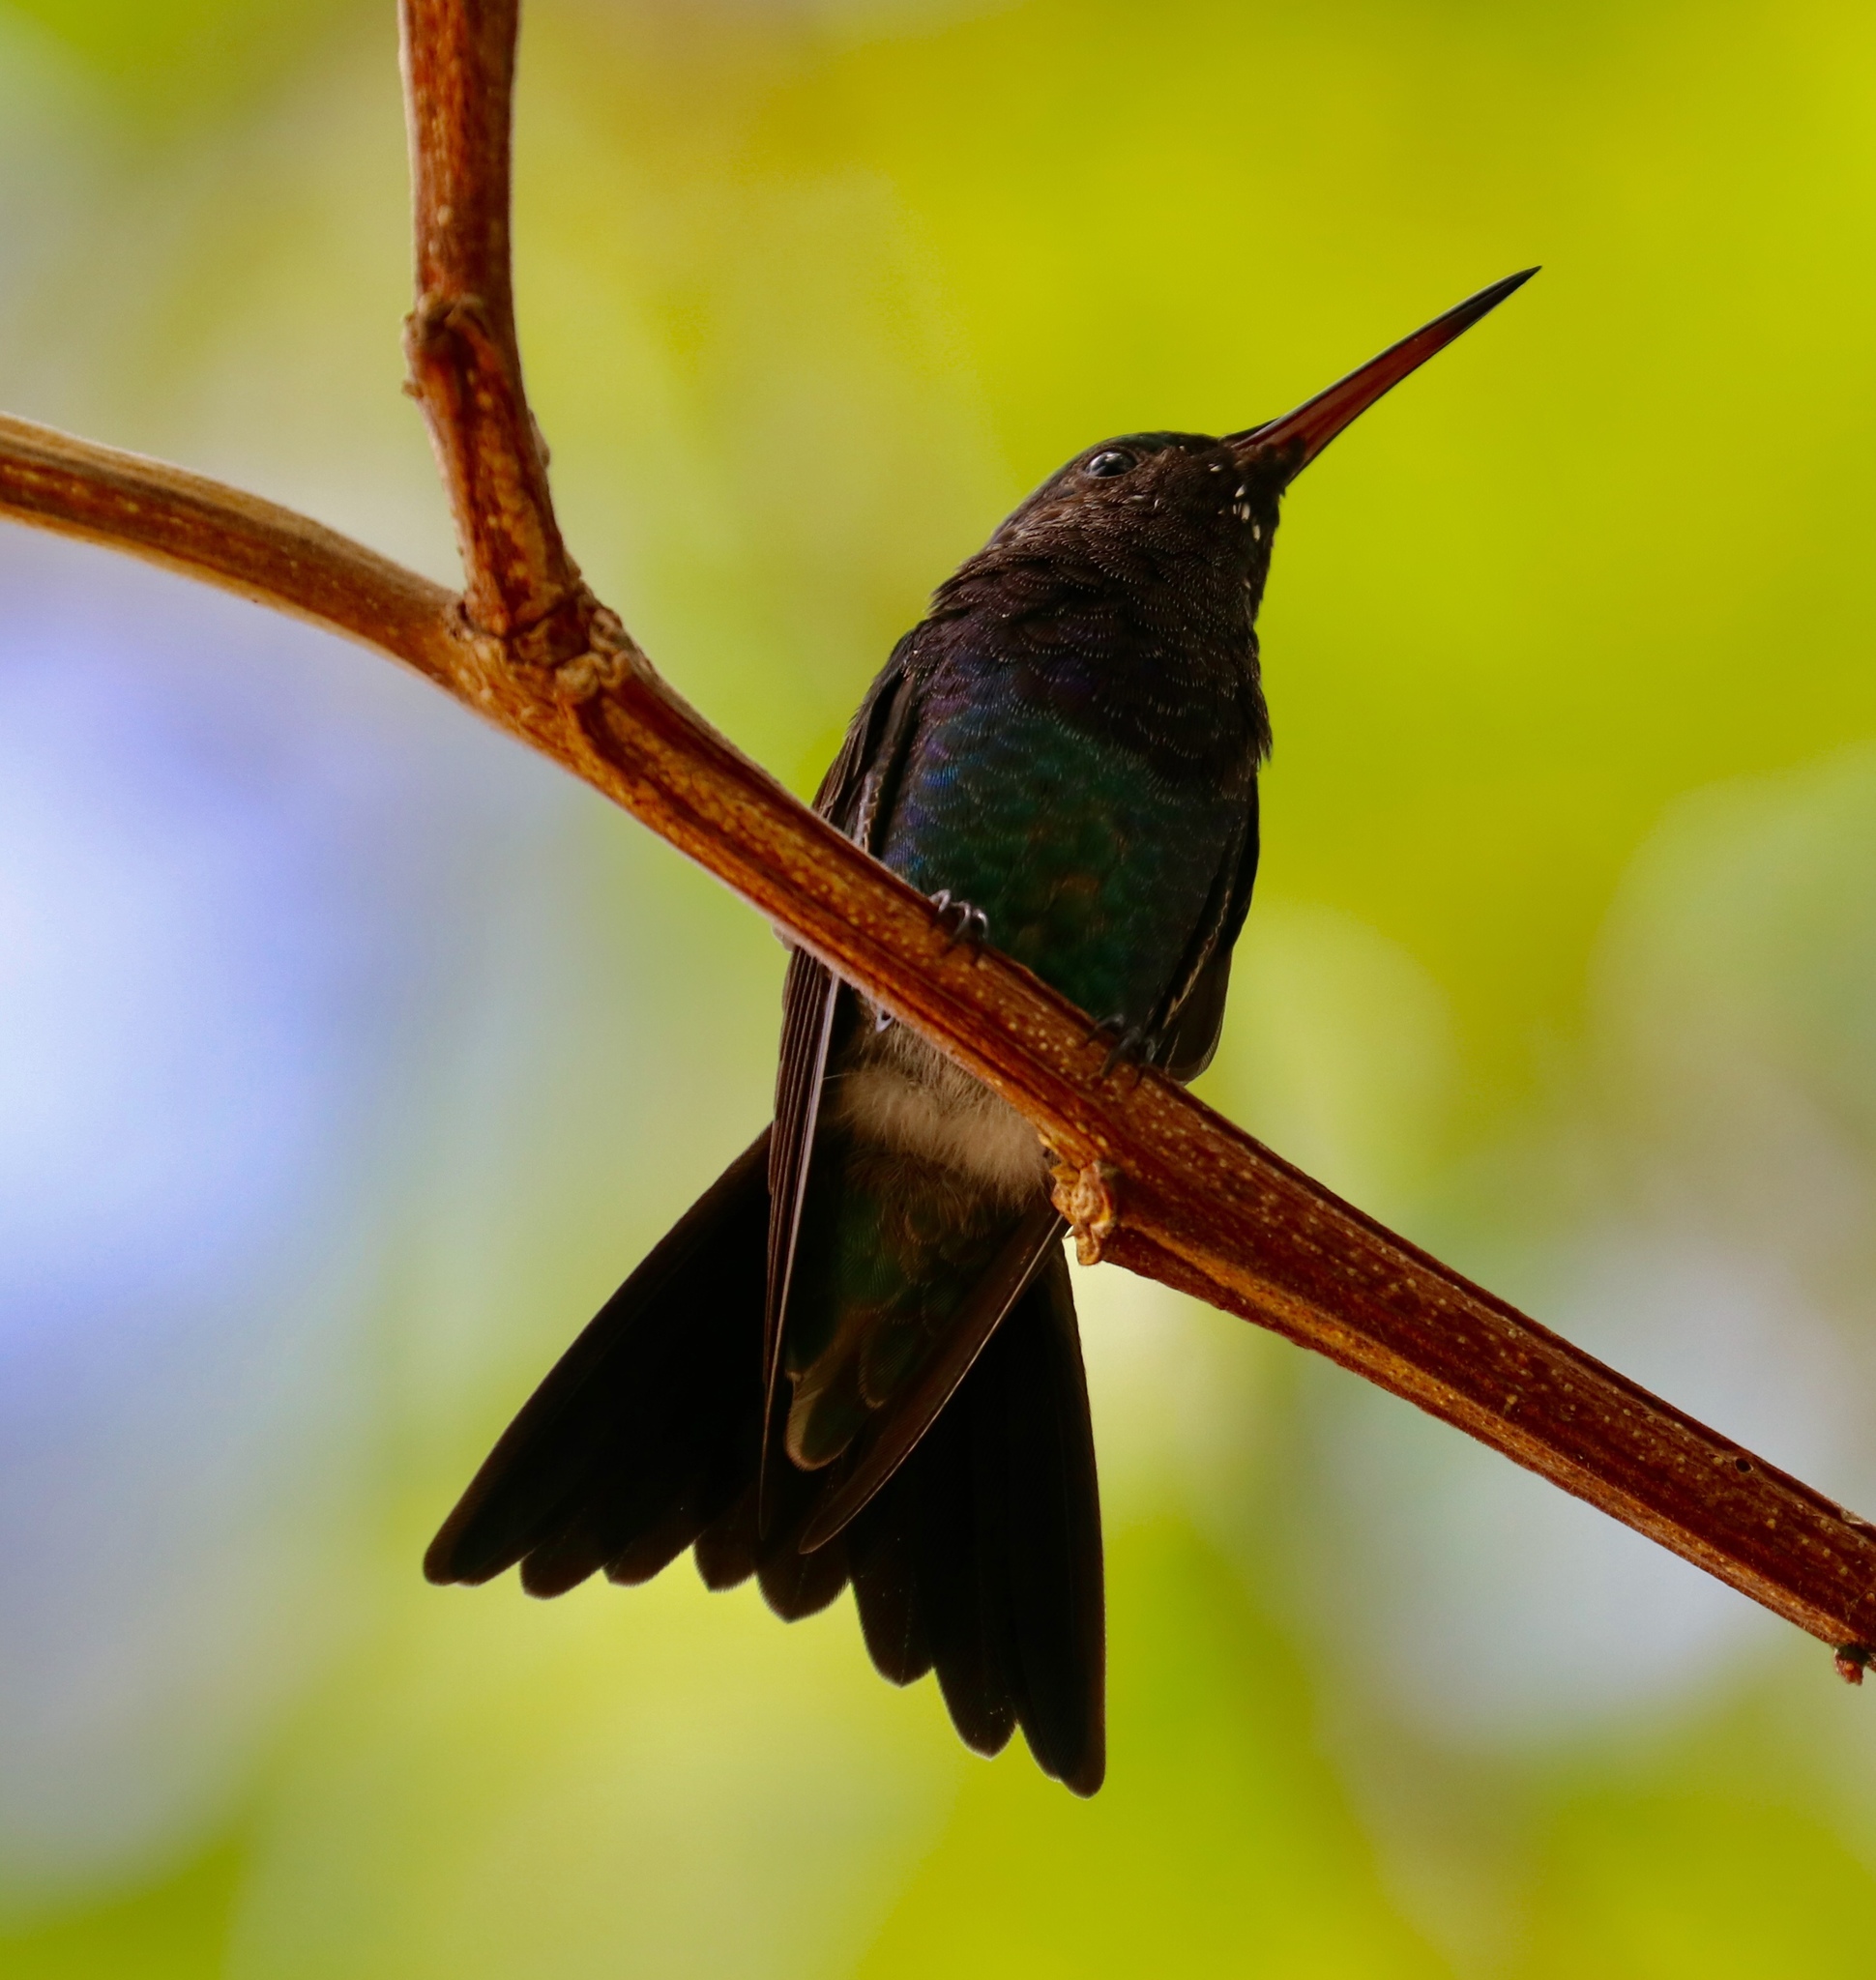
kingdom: Animalia
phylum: Chordata
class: Aves
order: Apodiformes
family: Trochilidae
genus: Chrysuronia
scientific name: Chrysuronia coeruleogularis
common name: Sapphire-throated hummingbird
